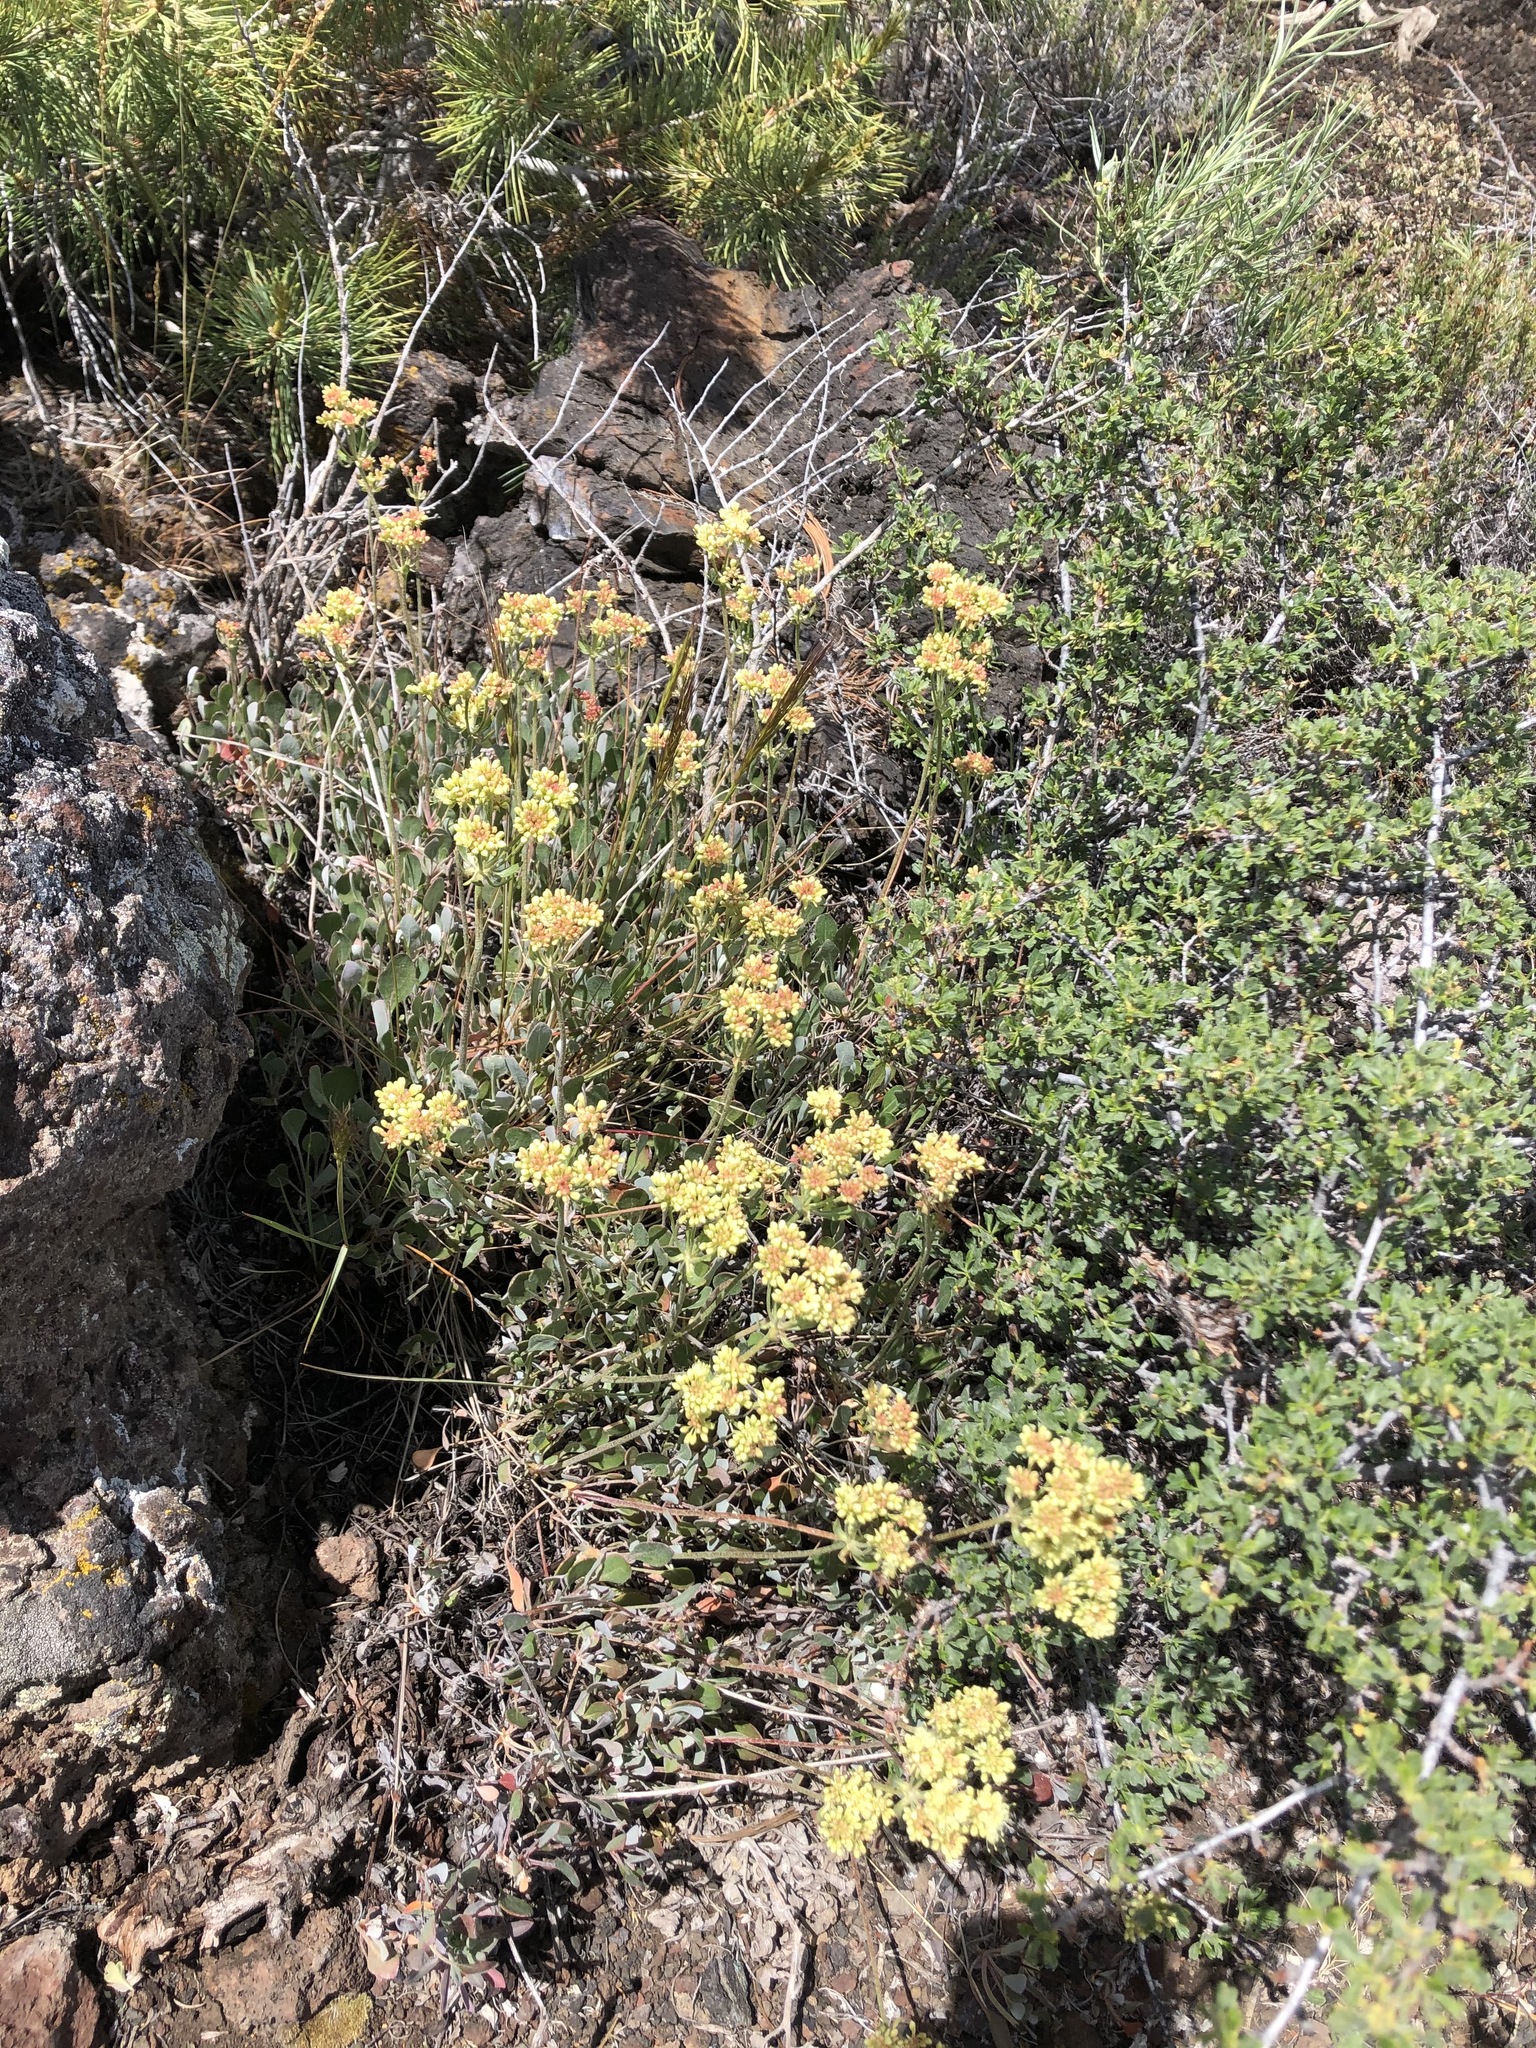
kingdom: Plantae
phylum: Tracheophyta
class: Magnoliopsida
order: Caryophyllales
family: Polygonaceae
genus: Eriogonum
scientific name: Eriogonum umbellatum
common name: Sulfur-buckwheat
